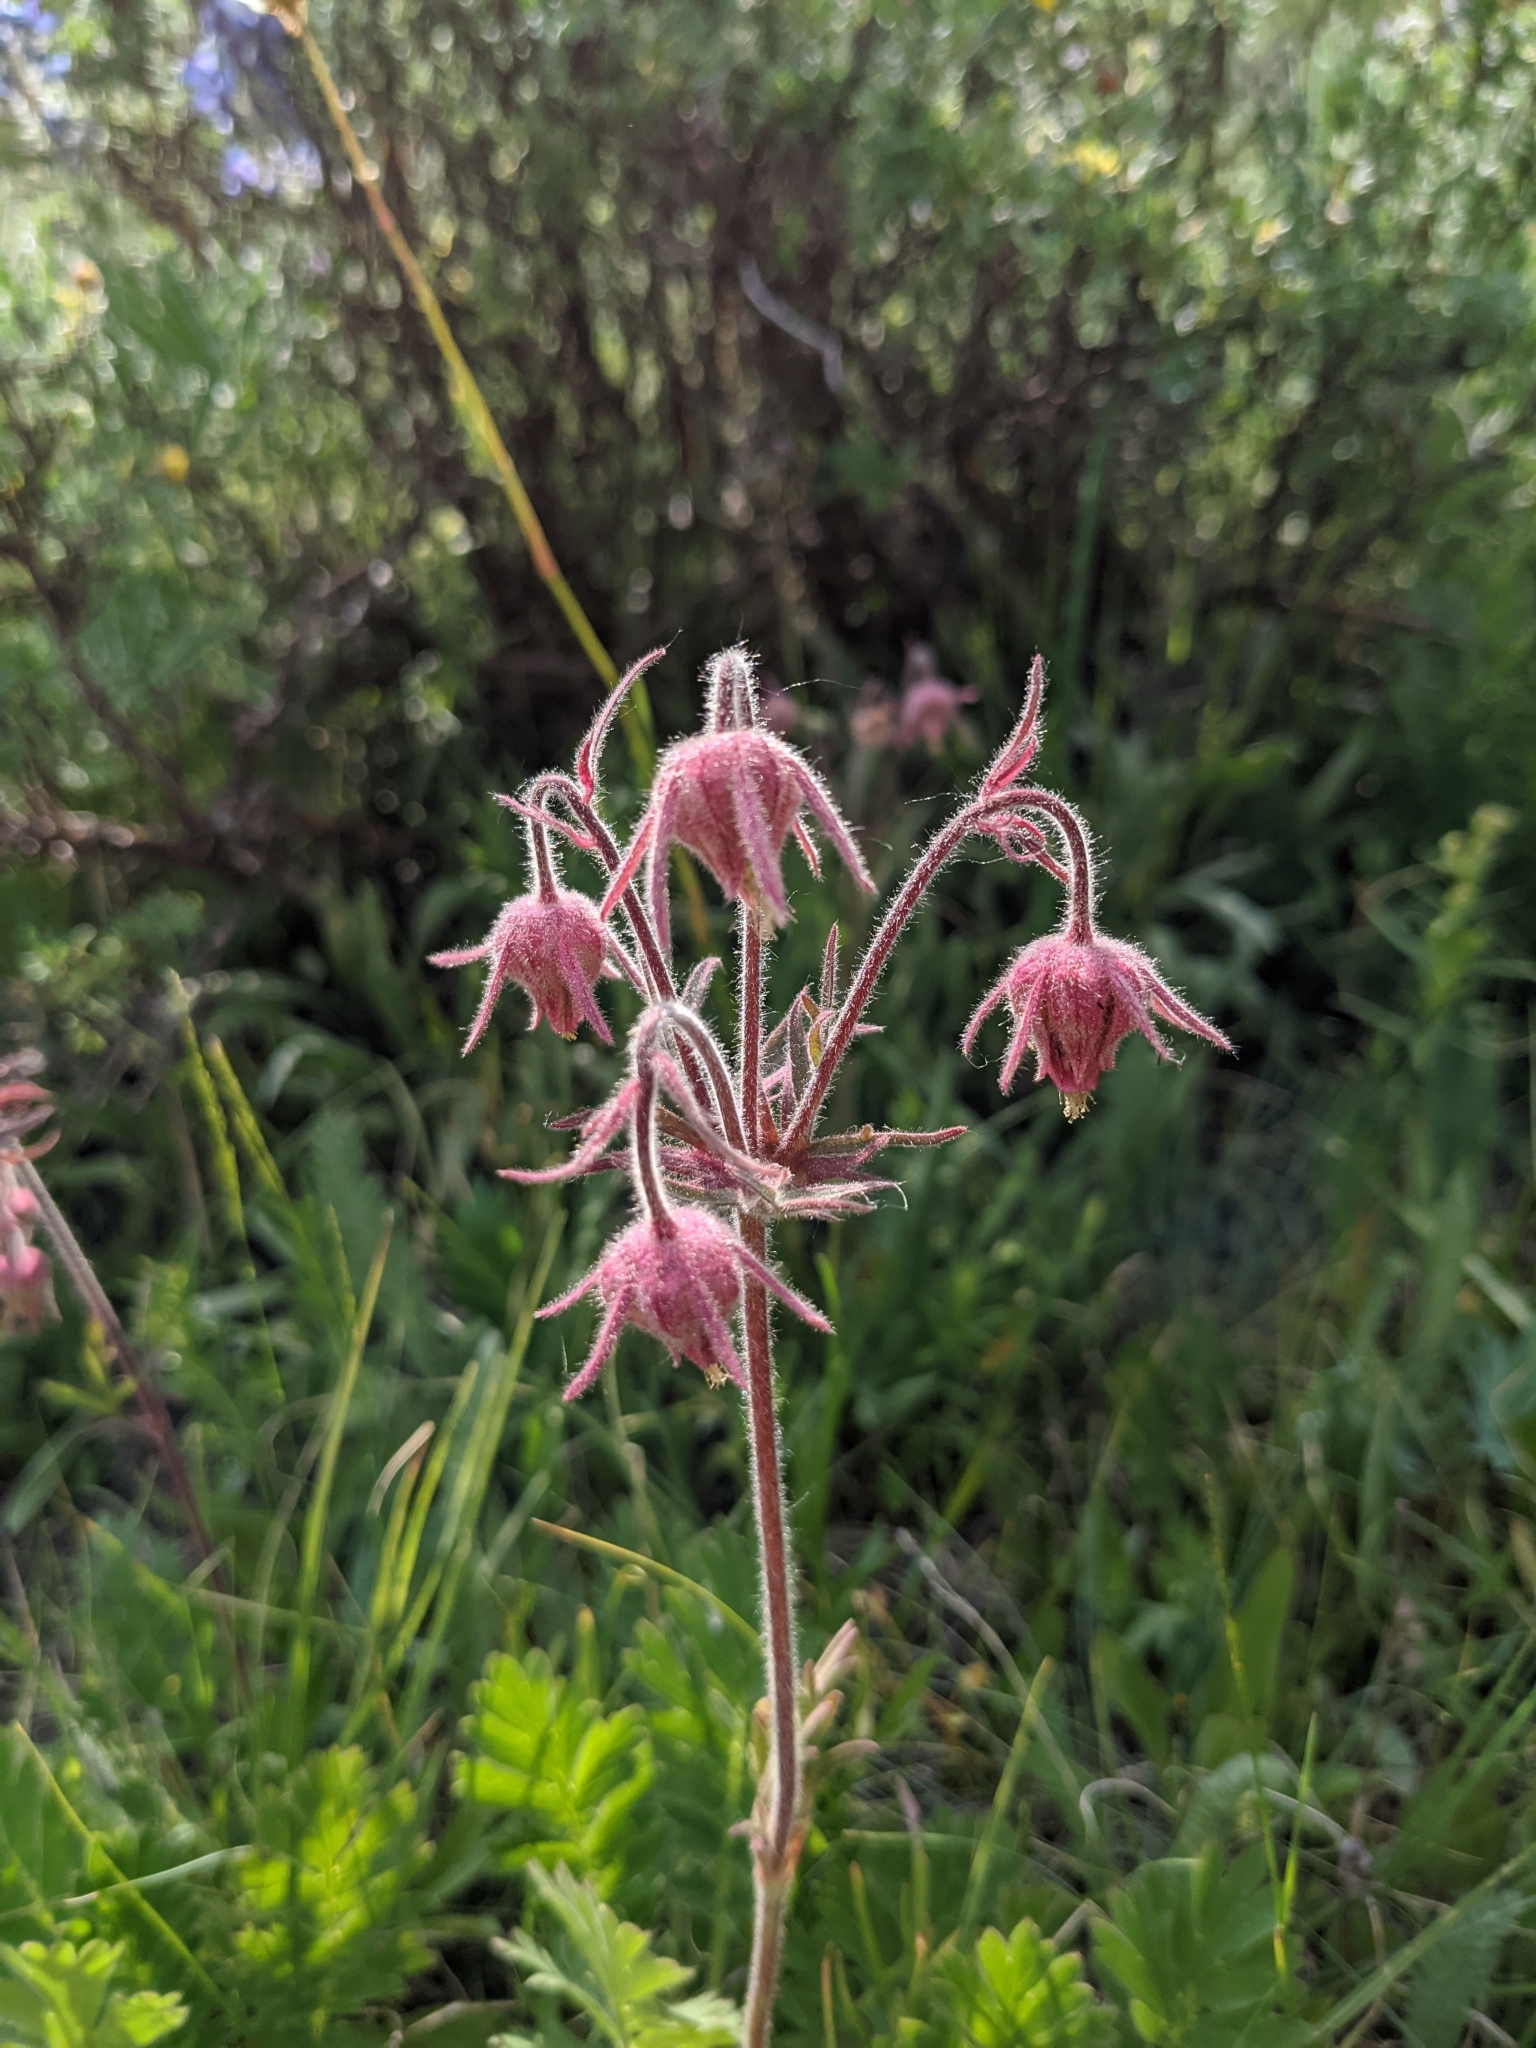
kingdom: Plantae
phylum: Tracheophyta
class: Magnoliopsida
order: Rosales
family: Rosaceae
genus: Geum
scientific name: Geum triflorum
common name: Old man's whiskers
